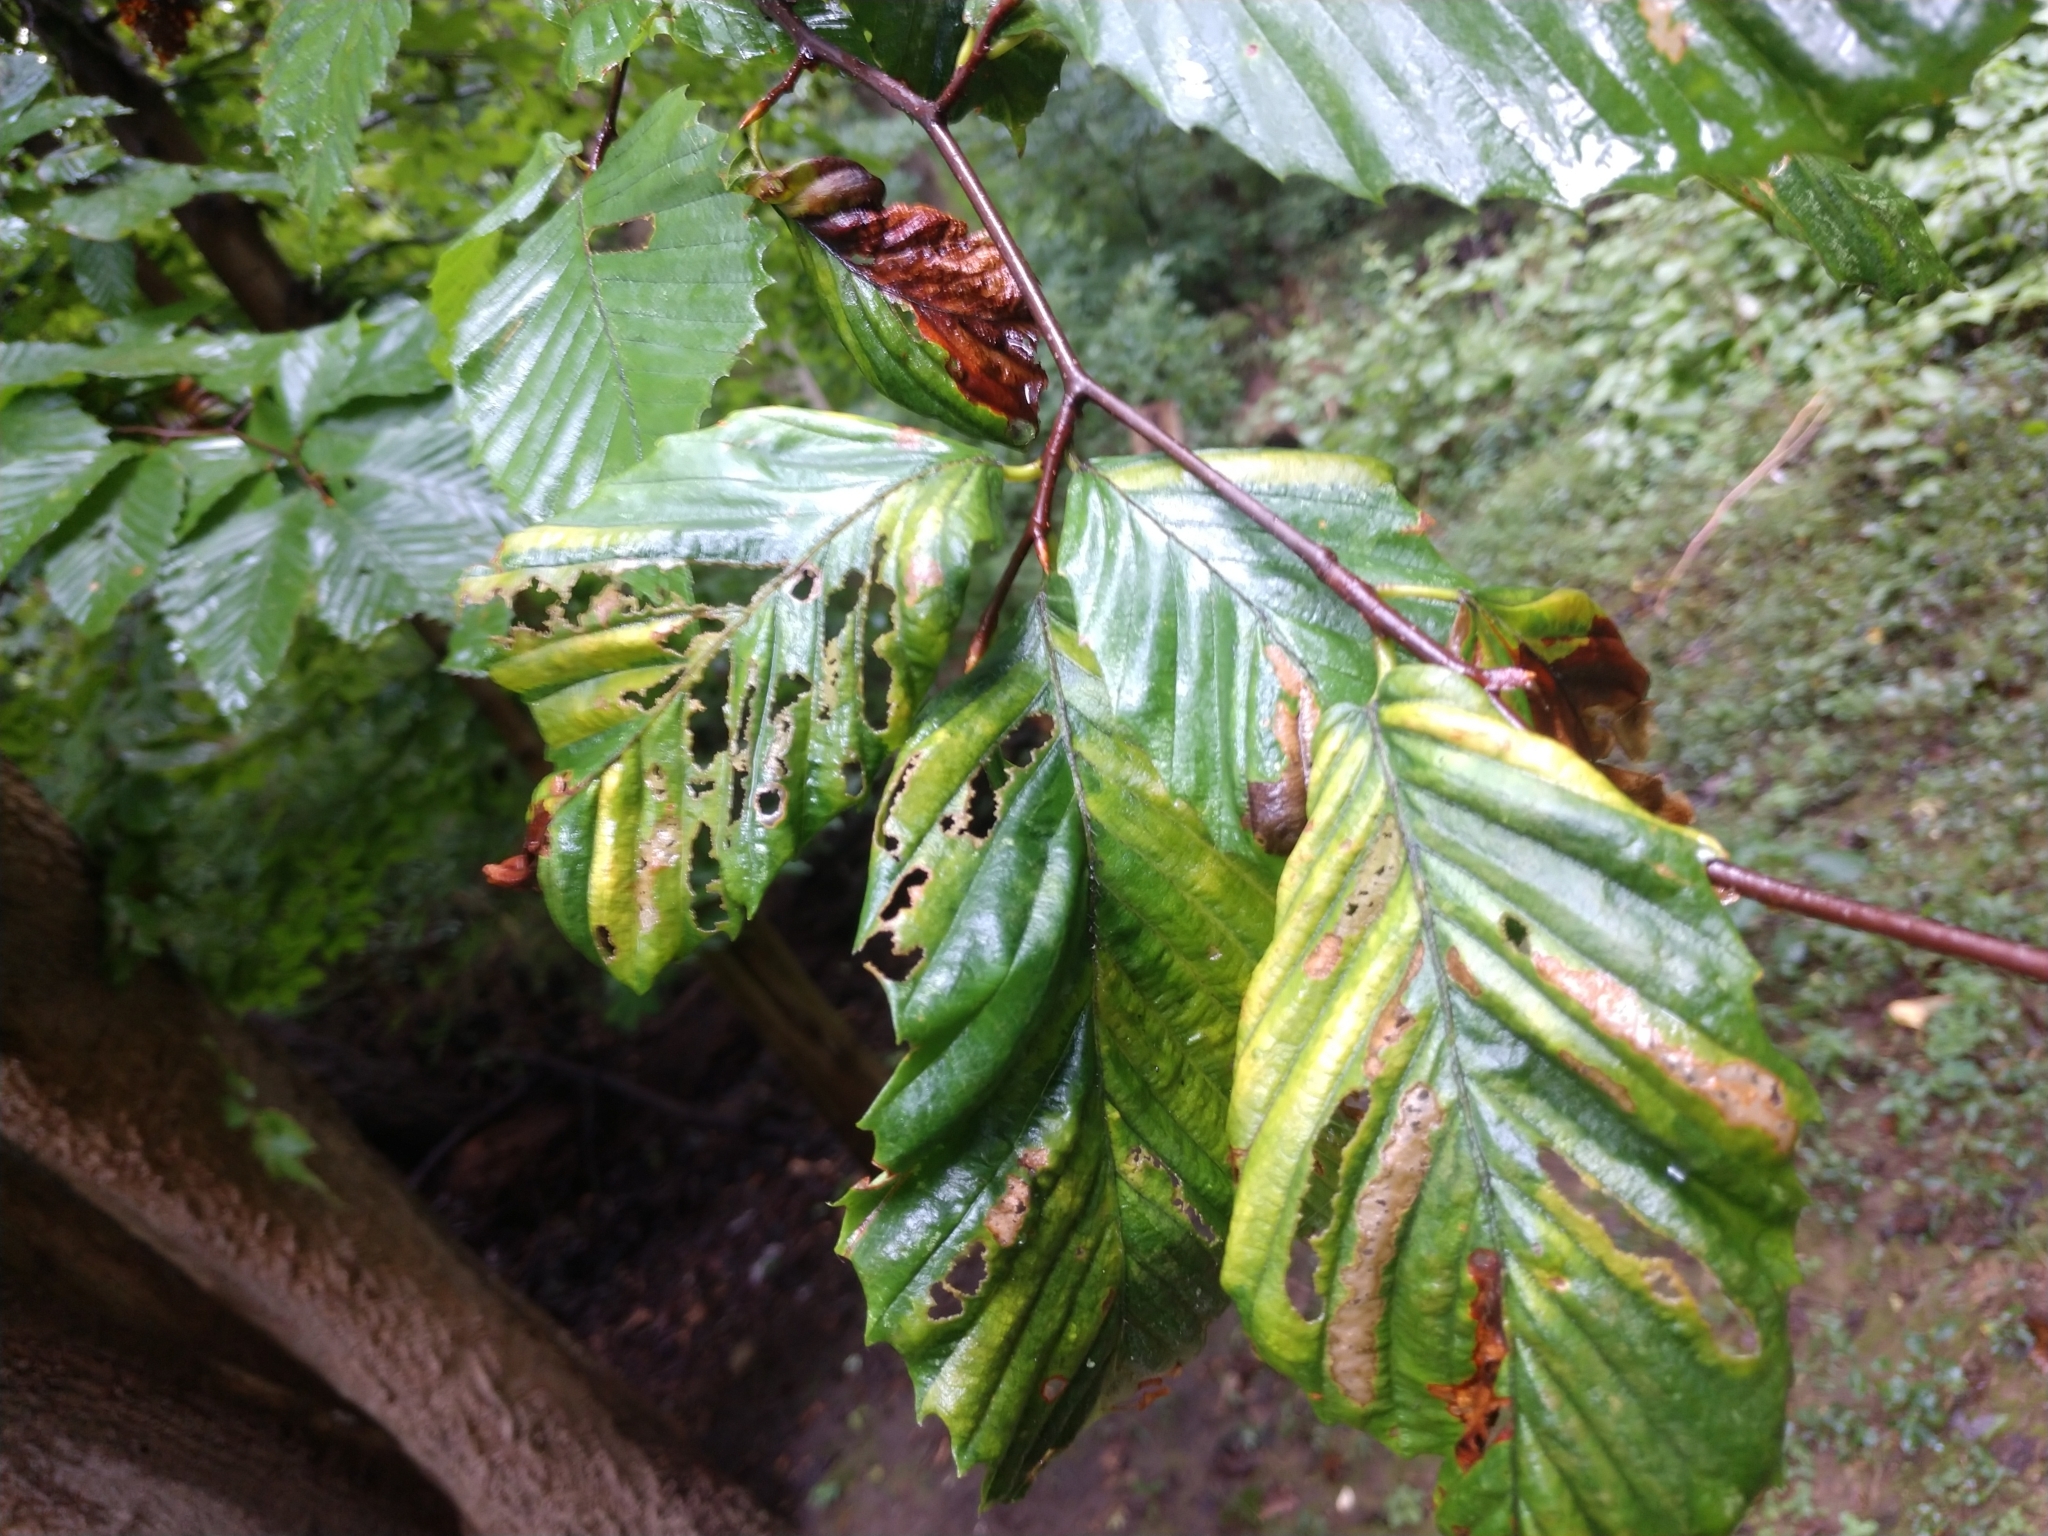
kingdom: Plantae
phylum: Tracheophyta
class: Magnoliopsida
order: Fagales
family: Fagaceae
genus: Fagus
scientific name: Fagus grandifolia
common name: American beech
